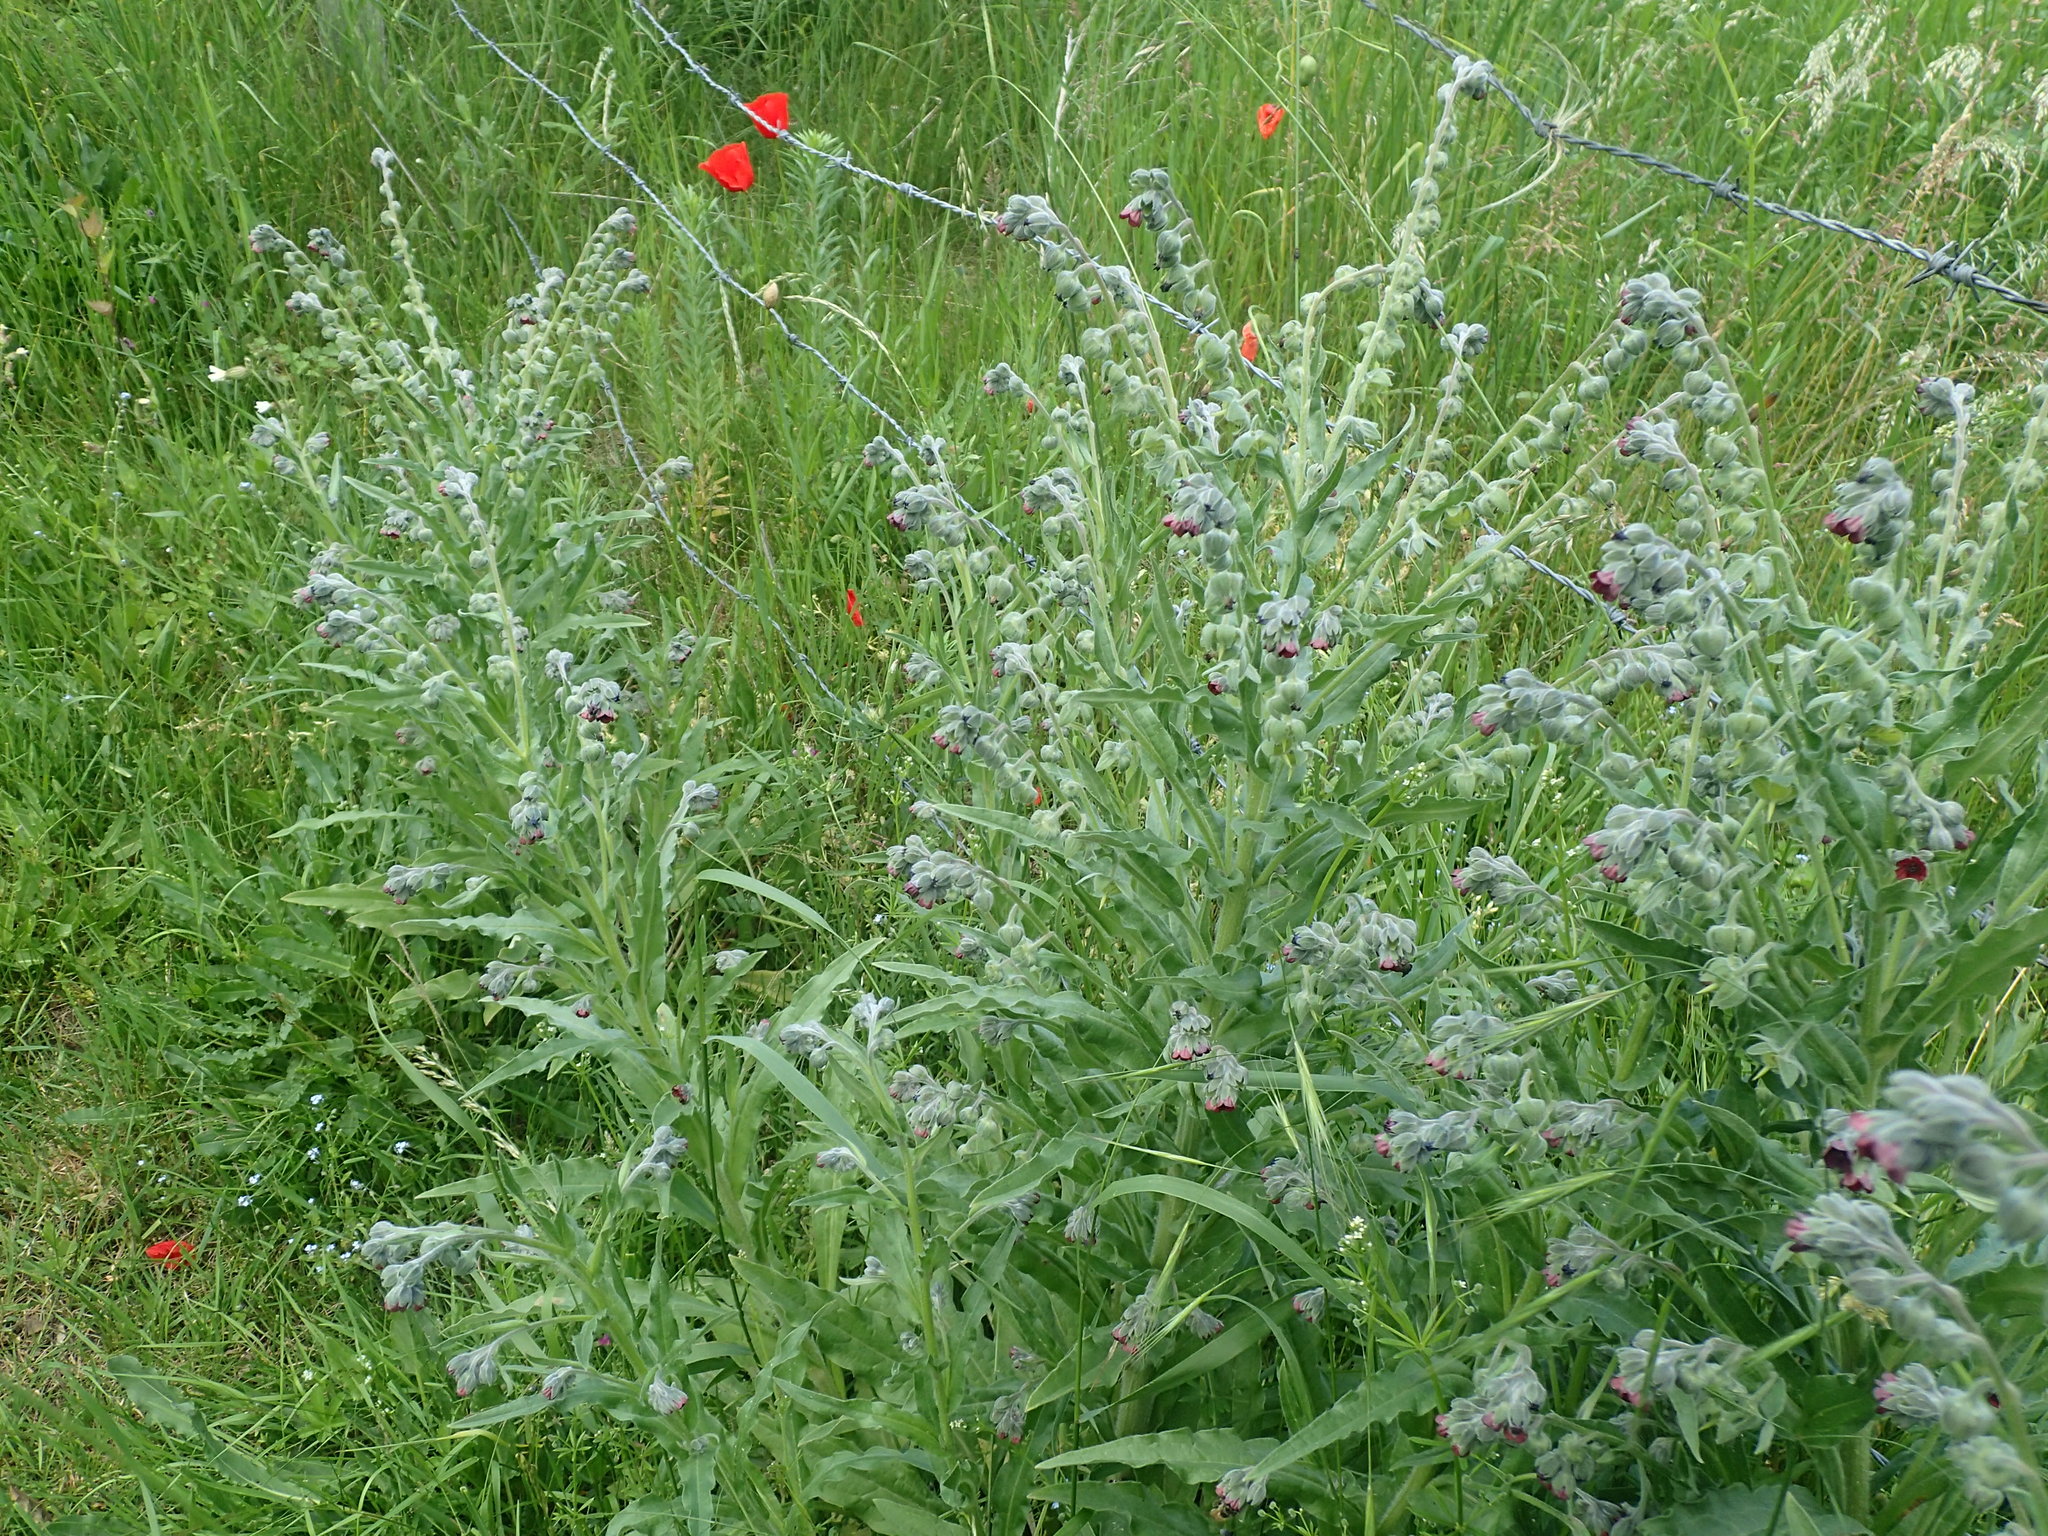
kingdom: Plantae
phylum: Tracheophyta
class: Magnoliopsida
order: Boraginales
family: Boraginaceae
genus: Cynoglossum
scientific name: Cynoglossum officinale
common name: Hound's-tongue
